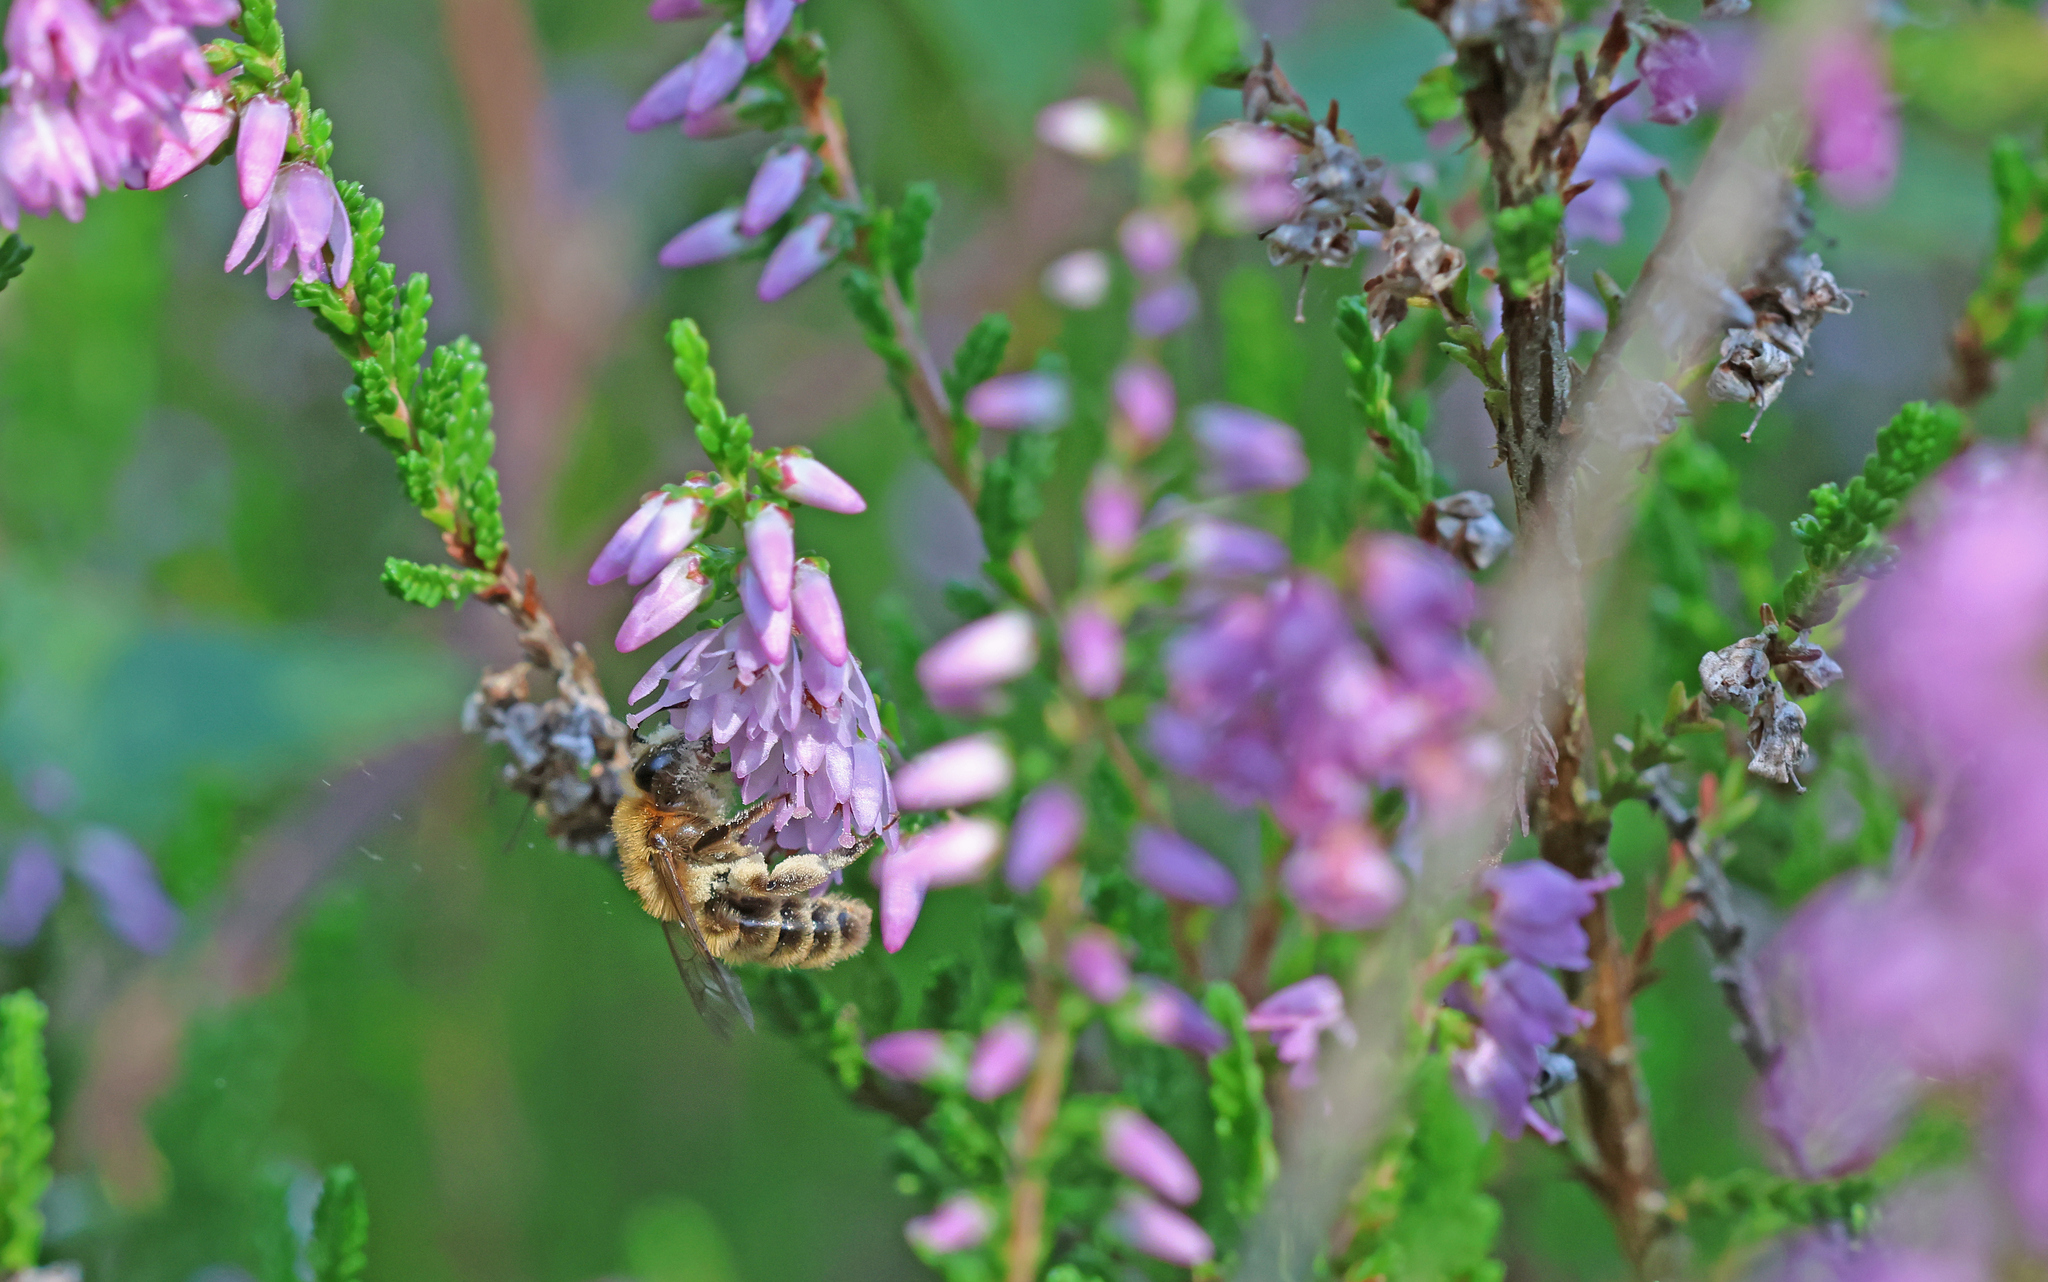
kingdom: Animalia
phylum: Arthropoda
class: Insecta
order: Hymenoptera
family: Andrenidae
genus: Andrena
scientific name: Andrena fuscipes
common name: Heather mining bee
